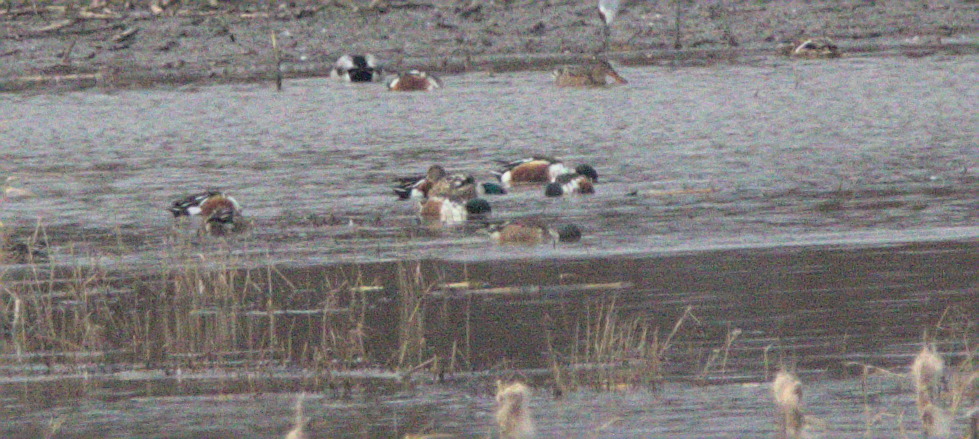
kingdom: Animalia
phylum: Chordata
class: Aves
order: Anseriformes
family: Anatidae
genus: Spatula
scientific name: Spatula clypeata
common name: Northern shoveler
